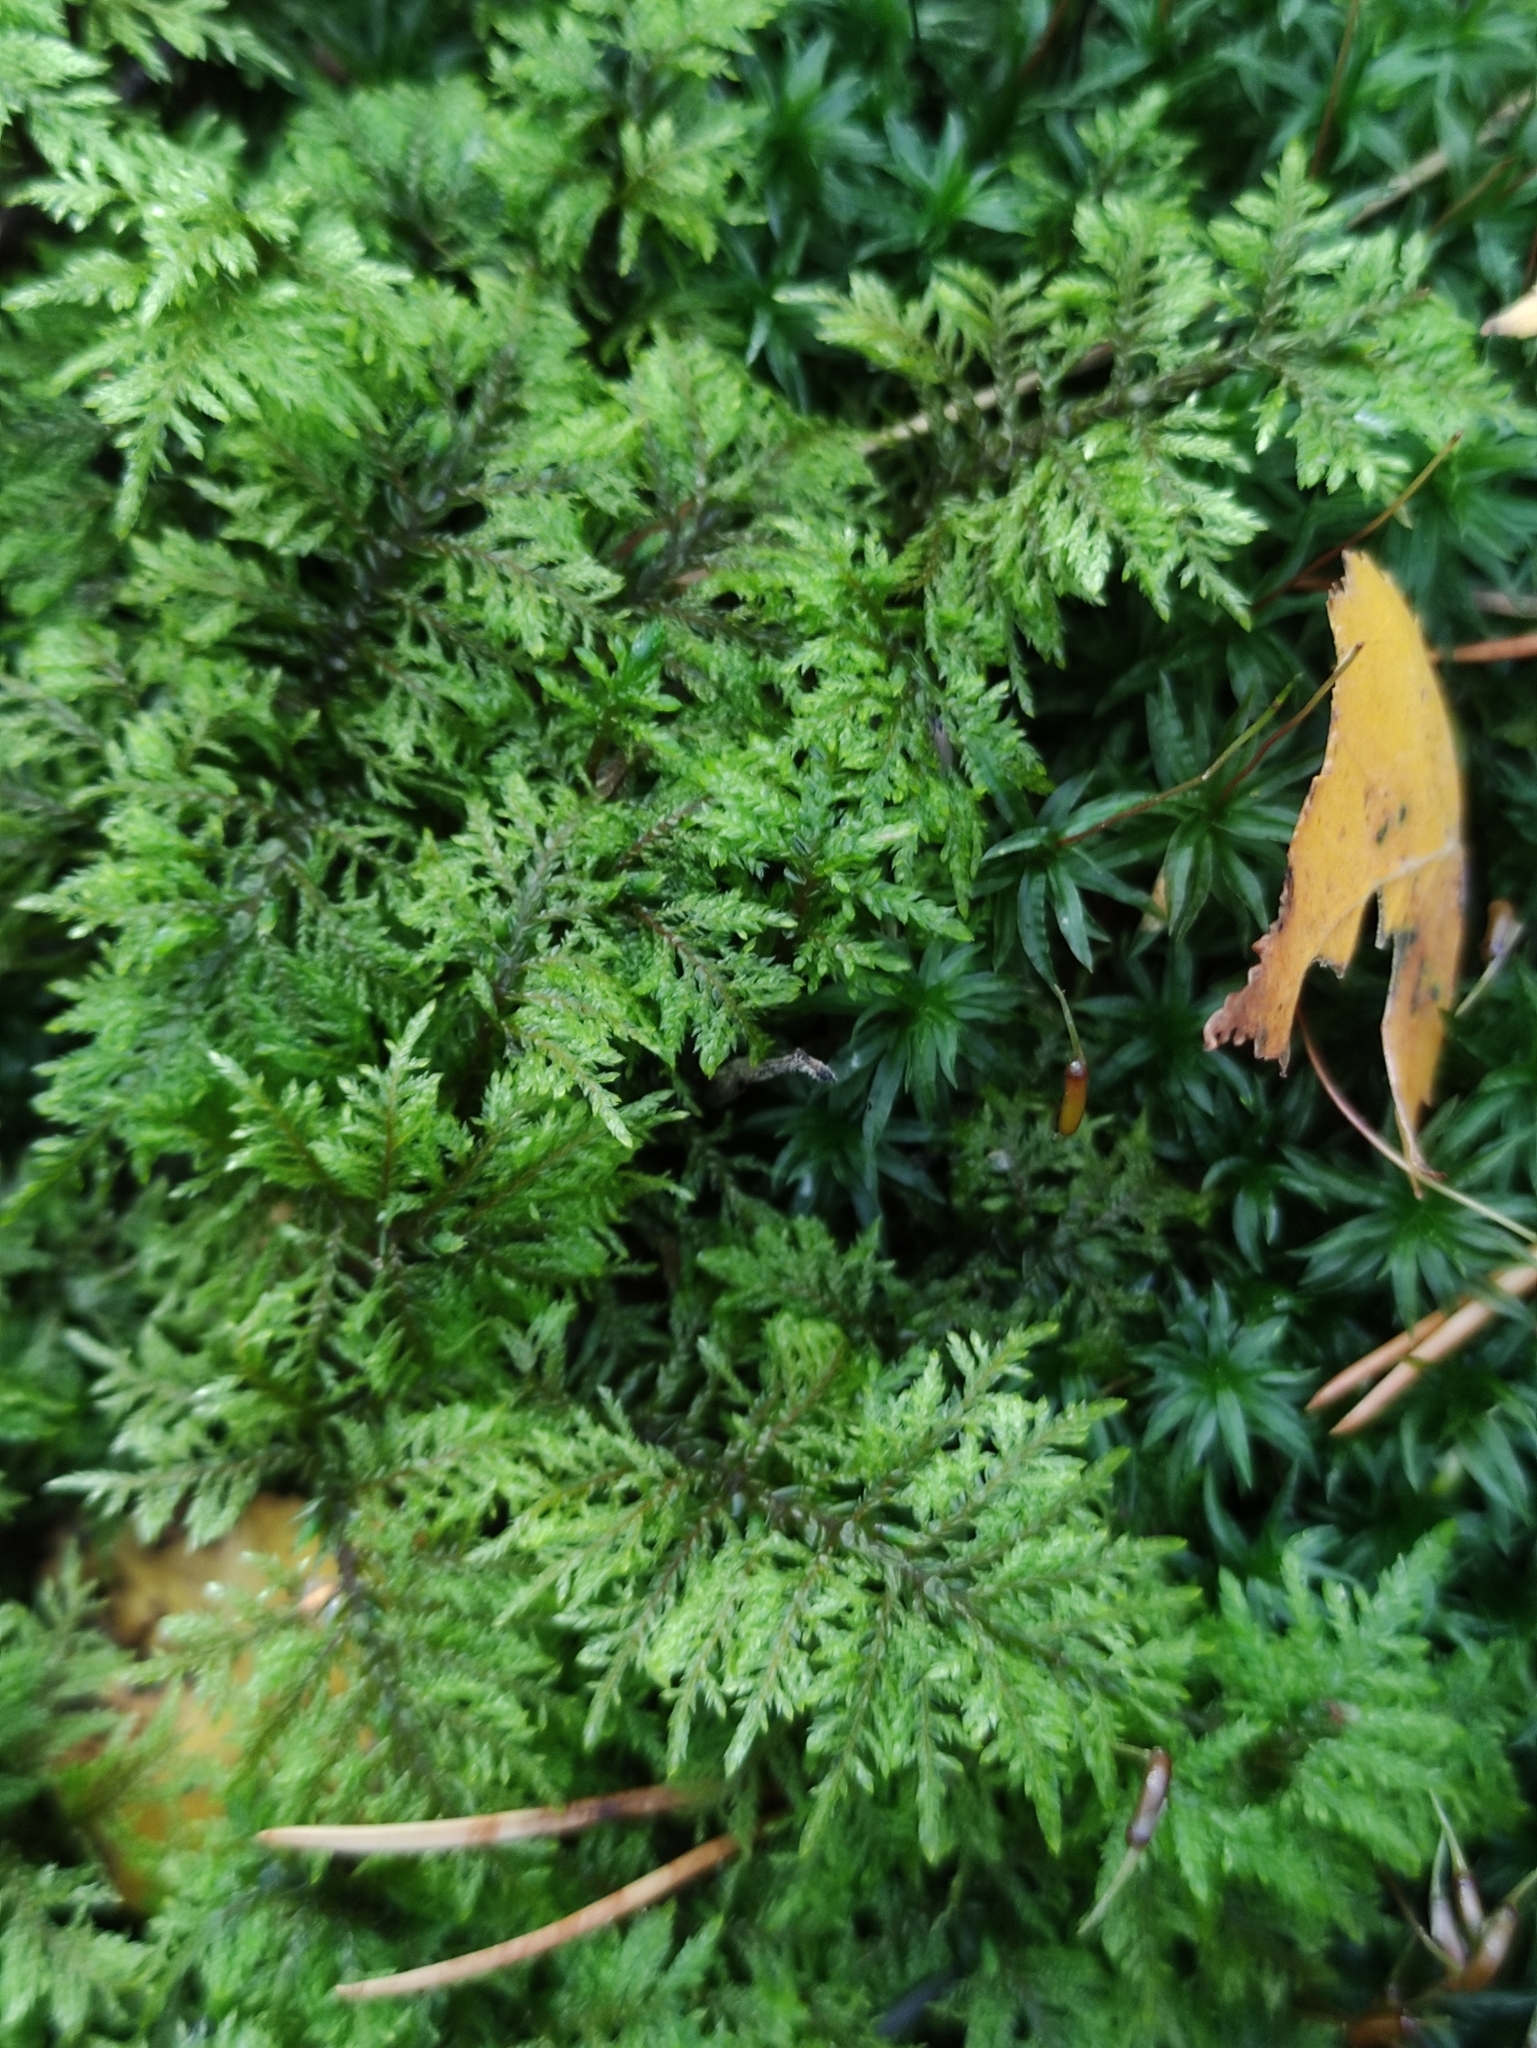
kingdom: Plantae
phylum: Bryophyta
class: Bryopsida
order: Hypnales
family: Hylocomiaceae
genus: Hylocomium
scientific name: Hylocomium splendens
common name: Stairstep moss
